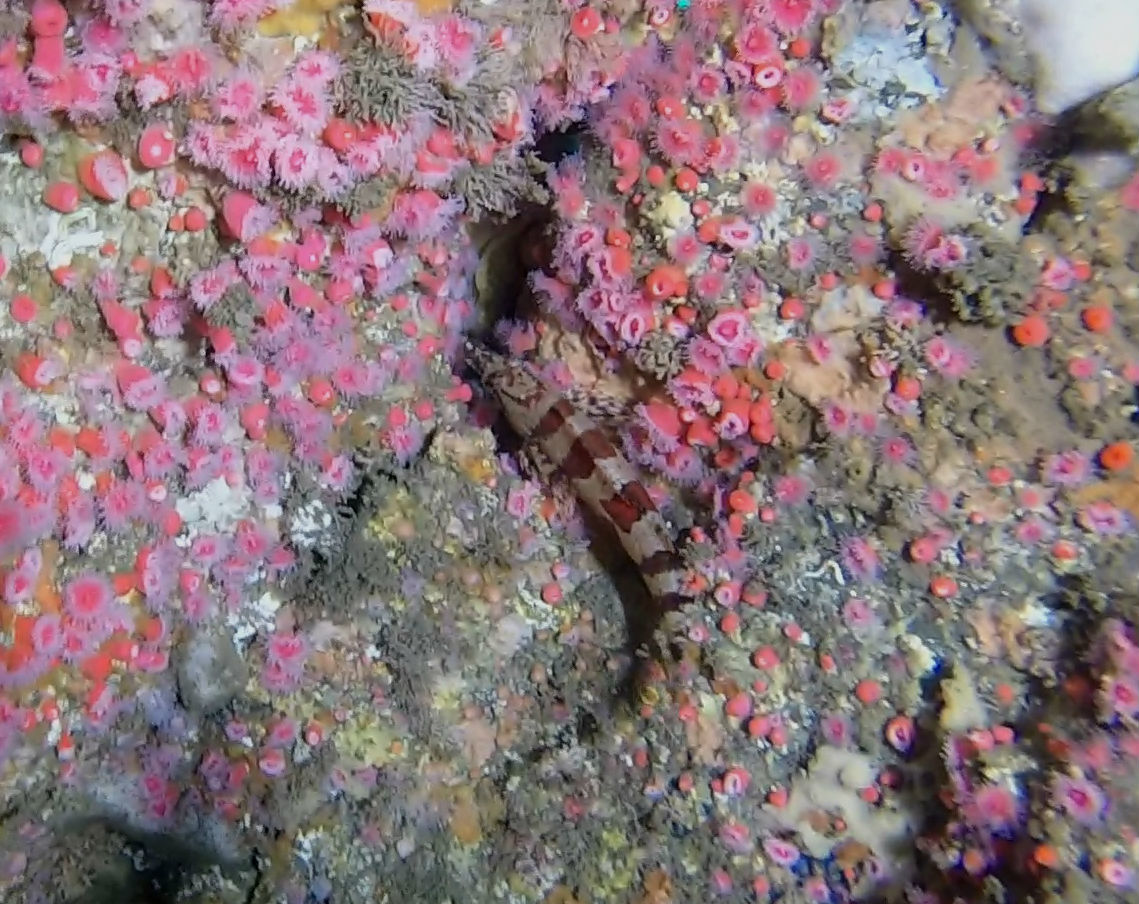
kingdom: Animalia
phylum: Cnidaria
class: Anthozoa
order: Corallimorpharia
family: Corallimorphidae
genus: Corynactis
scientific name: Corynactis californica
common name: Strawberry corallimorpharian
